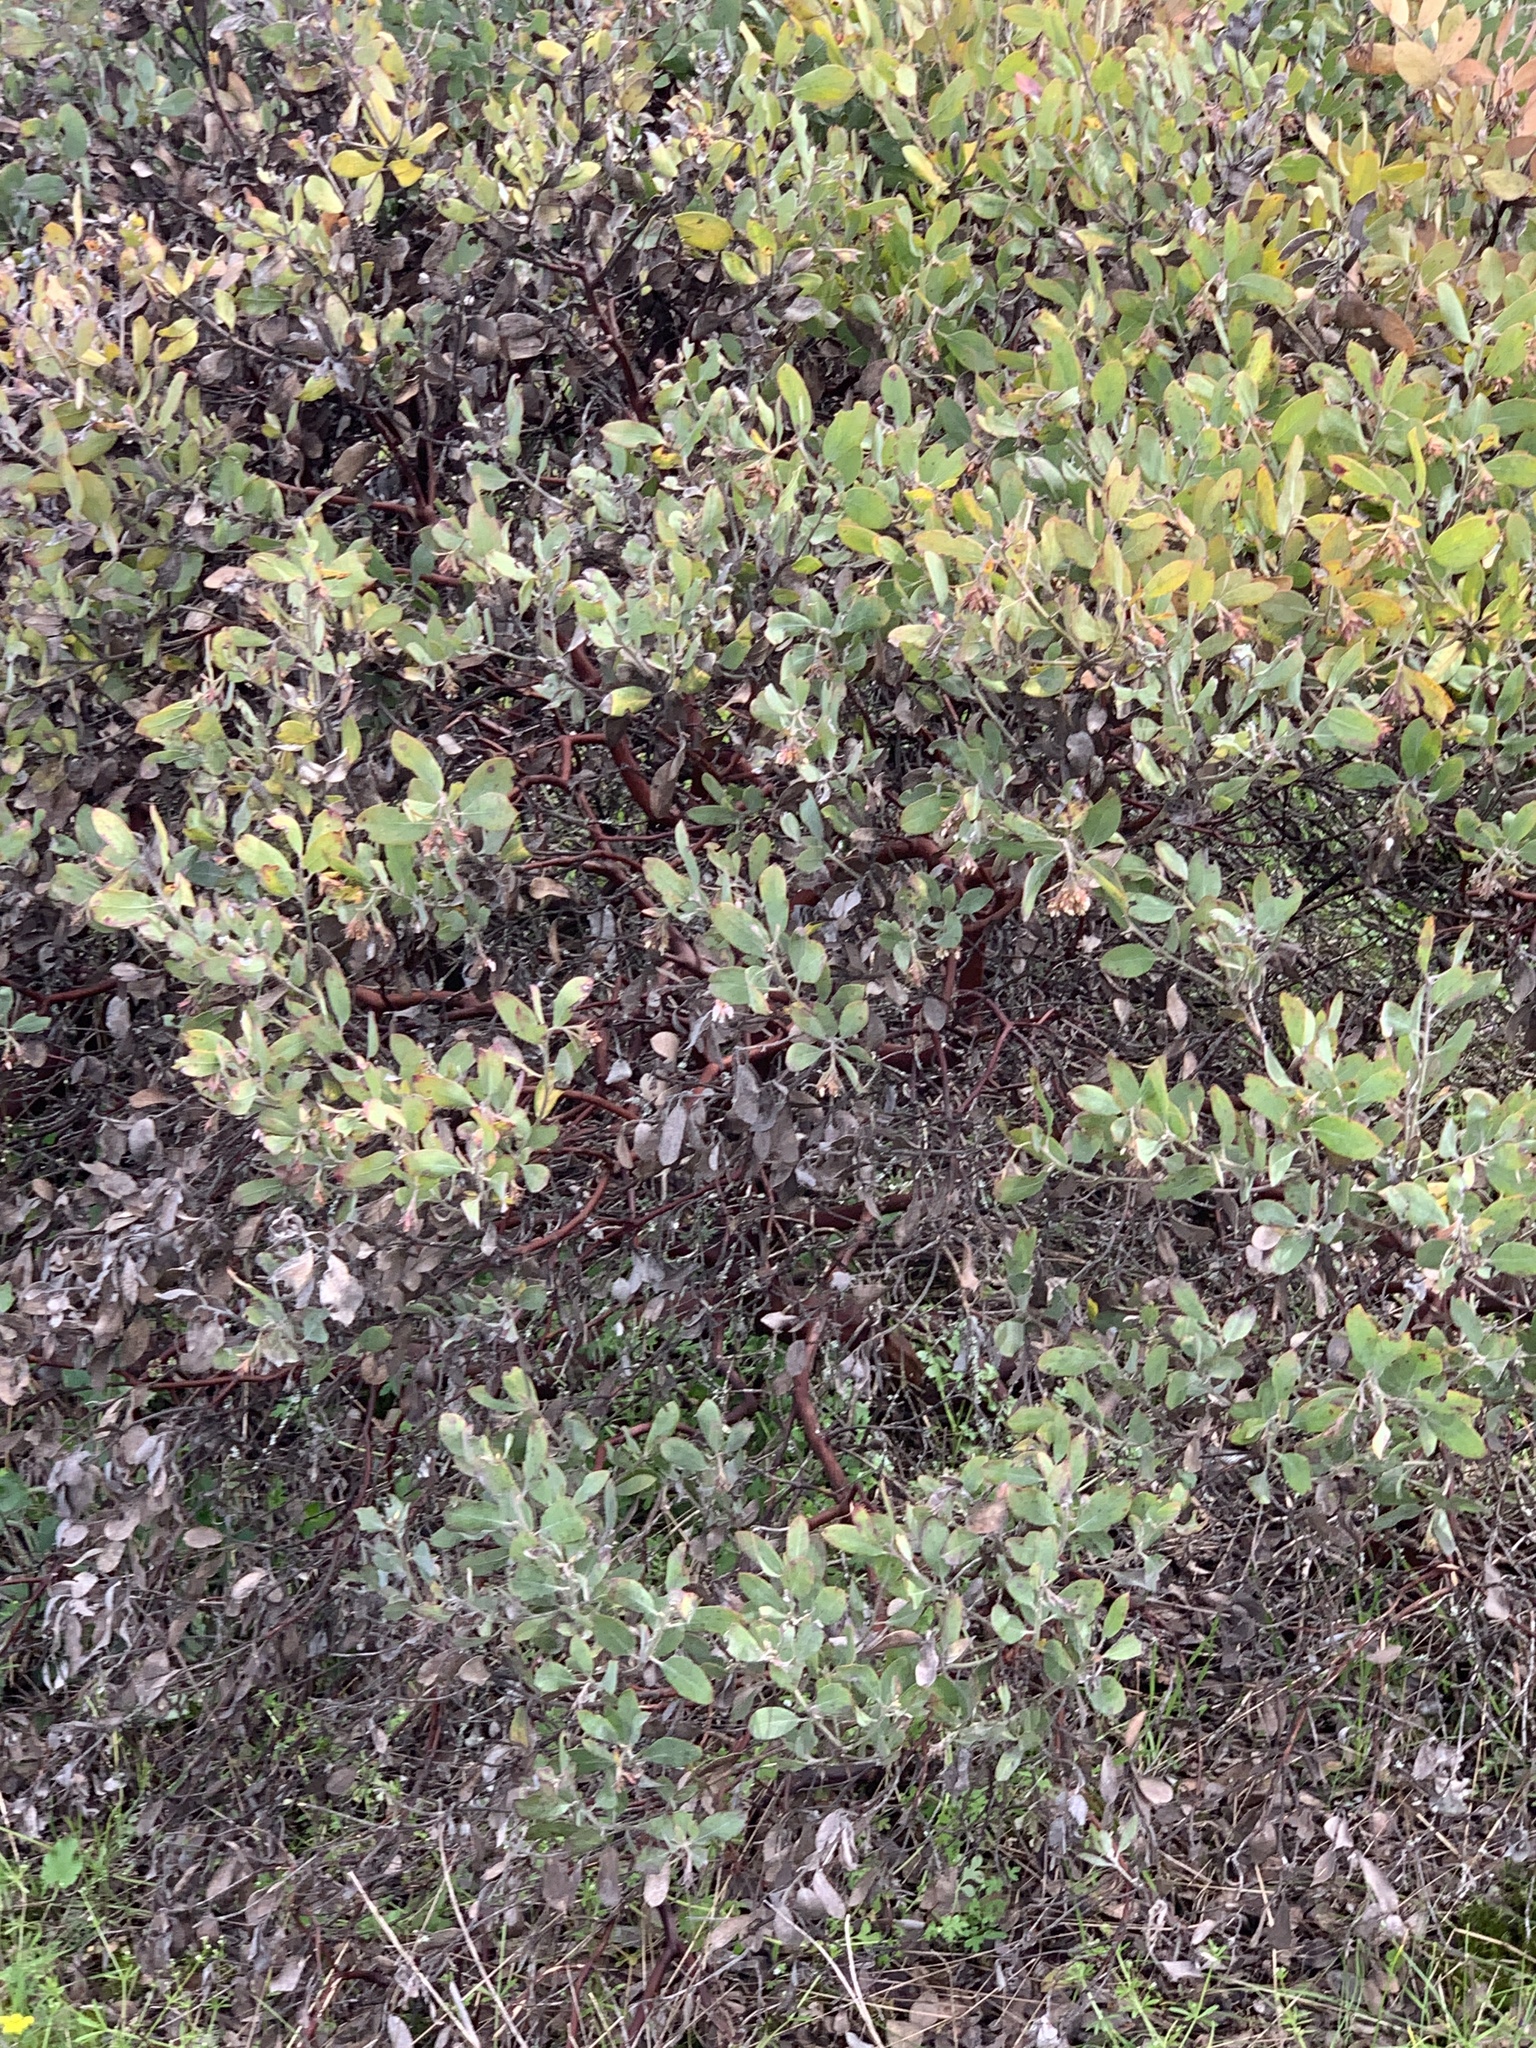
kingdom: Plantae
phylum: Tracheophyta
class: Magnoliopsida
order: Ericales
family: Ericaceae
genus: Arctostaphylos
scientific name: Arctostaphylos columbiana
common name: Bristly bearberry
